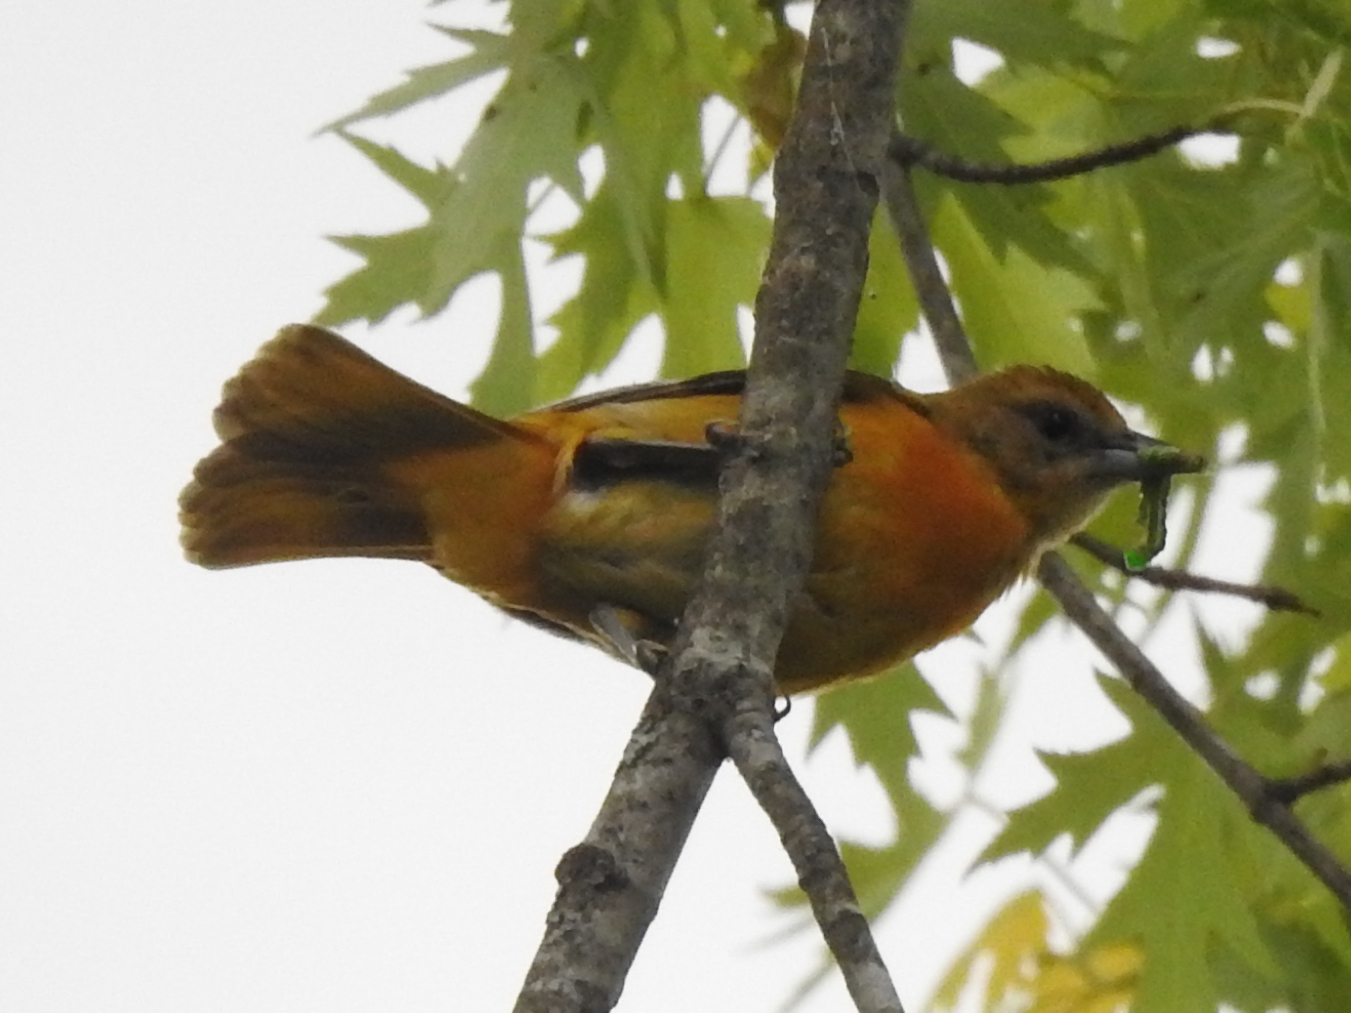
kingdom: Animalia
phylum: Chordata
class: Aves
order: Passeriformes
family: Icteridae
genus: Icterus
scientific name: Icterus galbula
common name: Baltimore oriole
